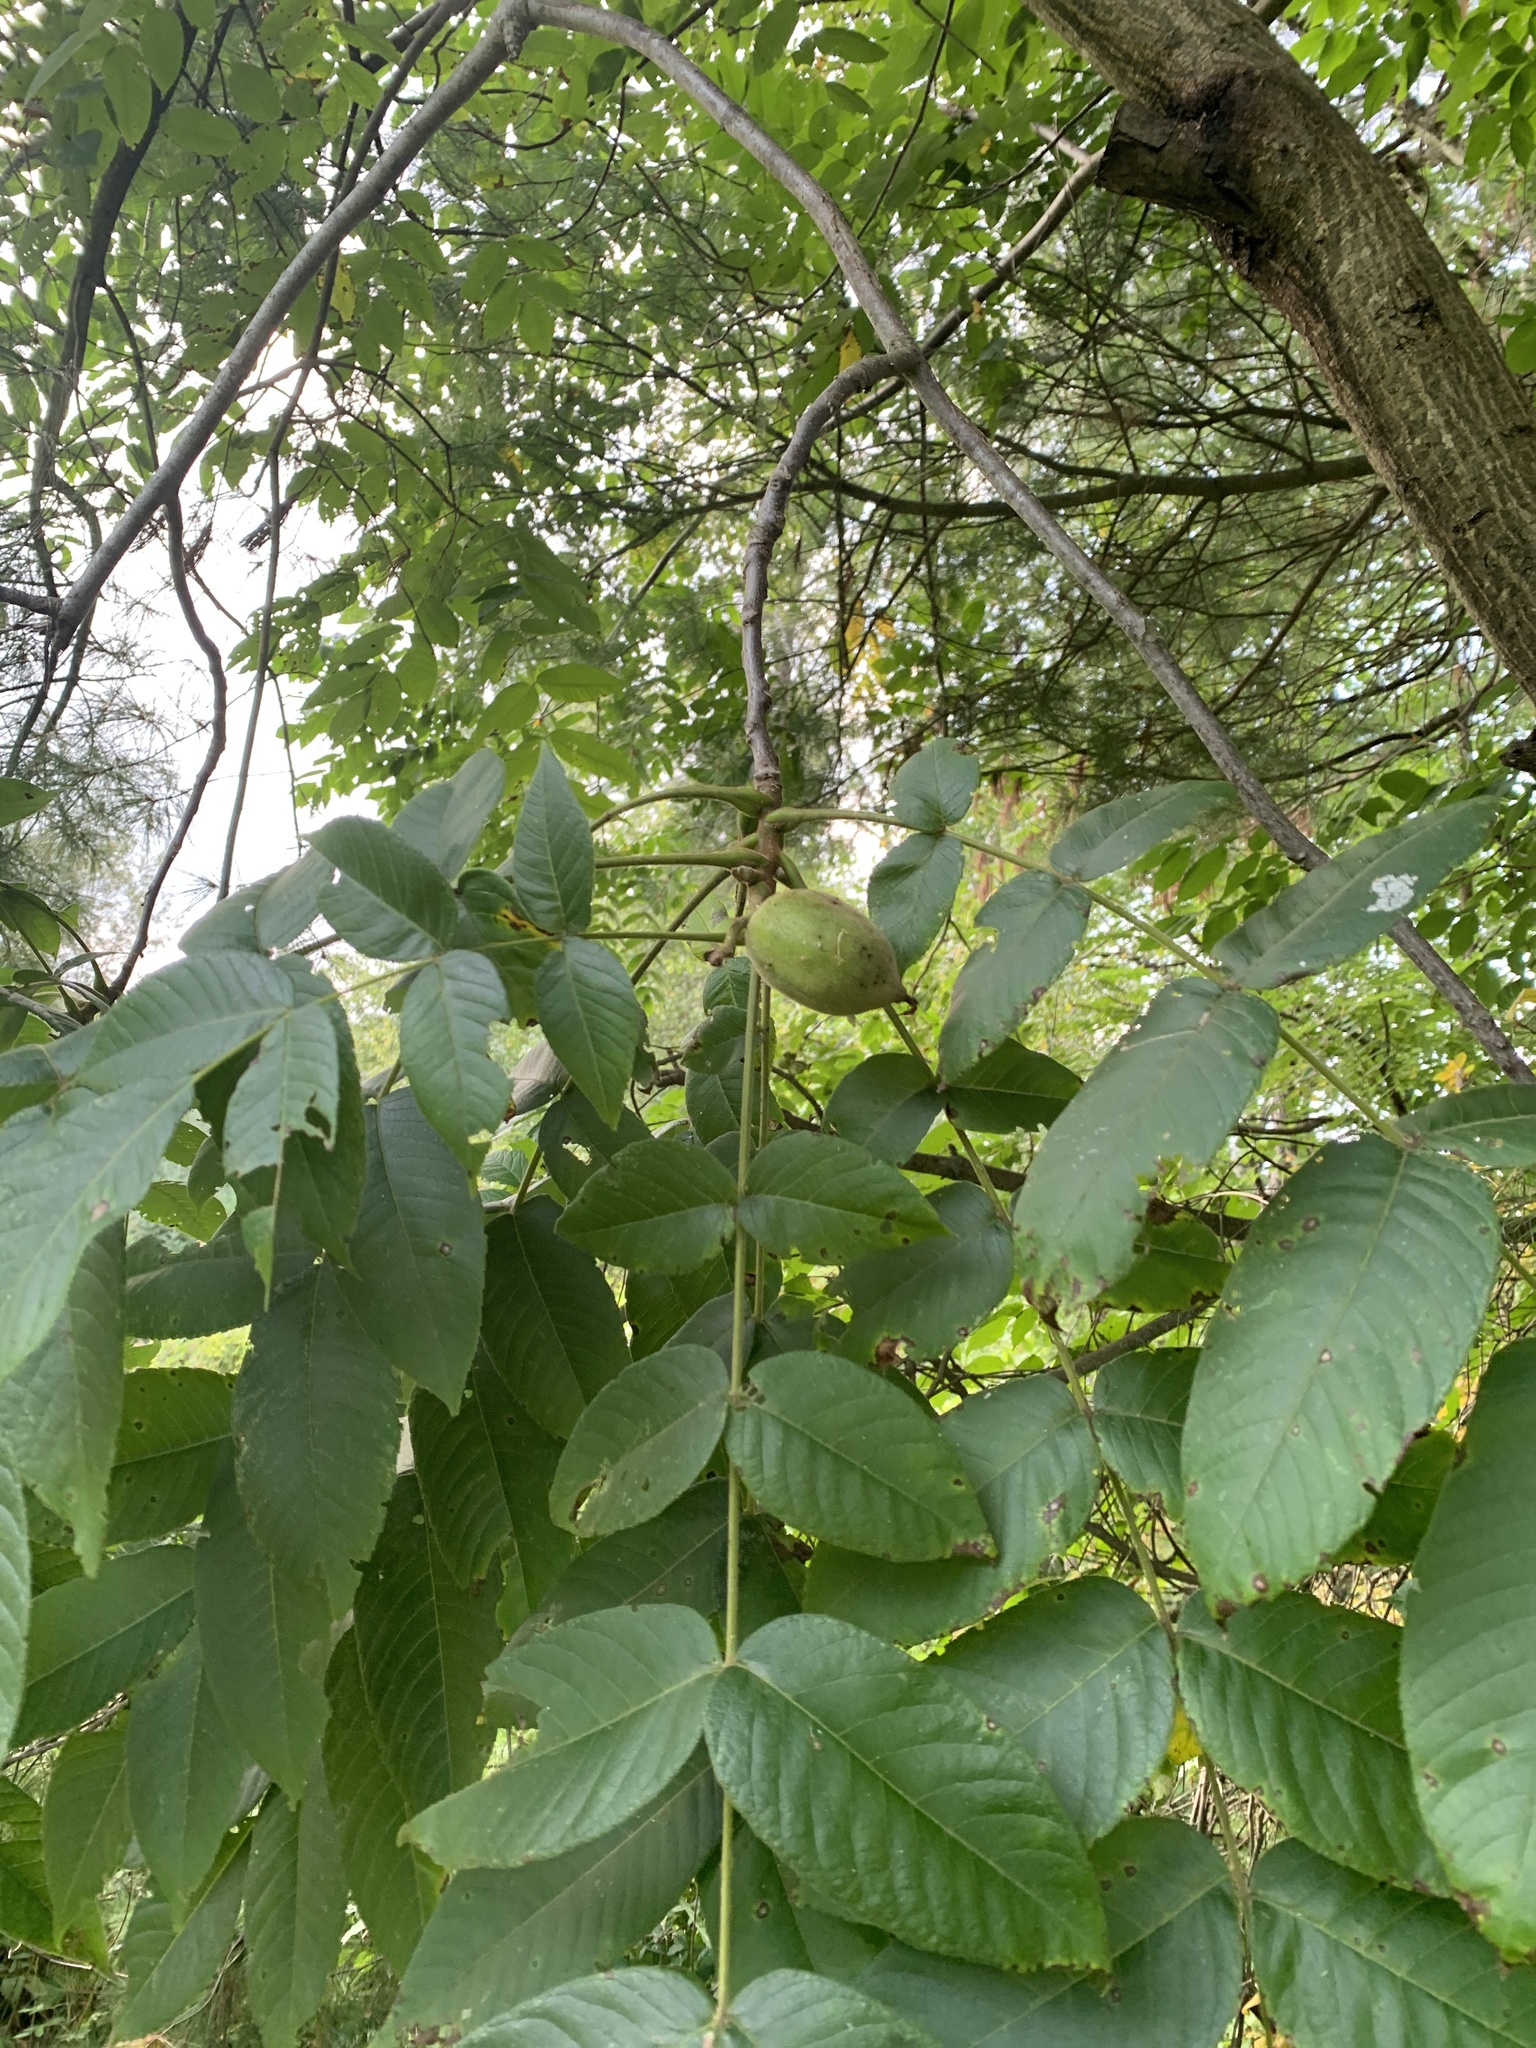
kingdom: Plantae
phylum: Tracheophyta
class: Magnoliopsida
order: Fagales
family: Juglandaceae
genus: Juglans
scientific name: Juglans cinerea
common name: Butternut
